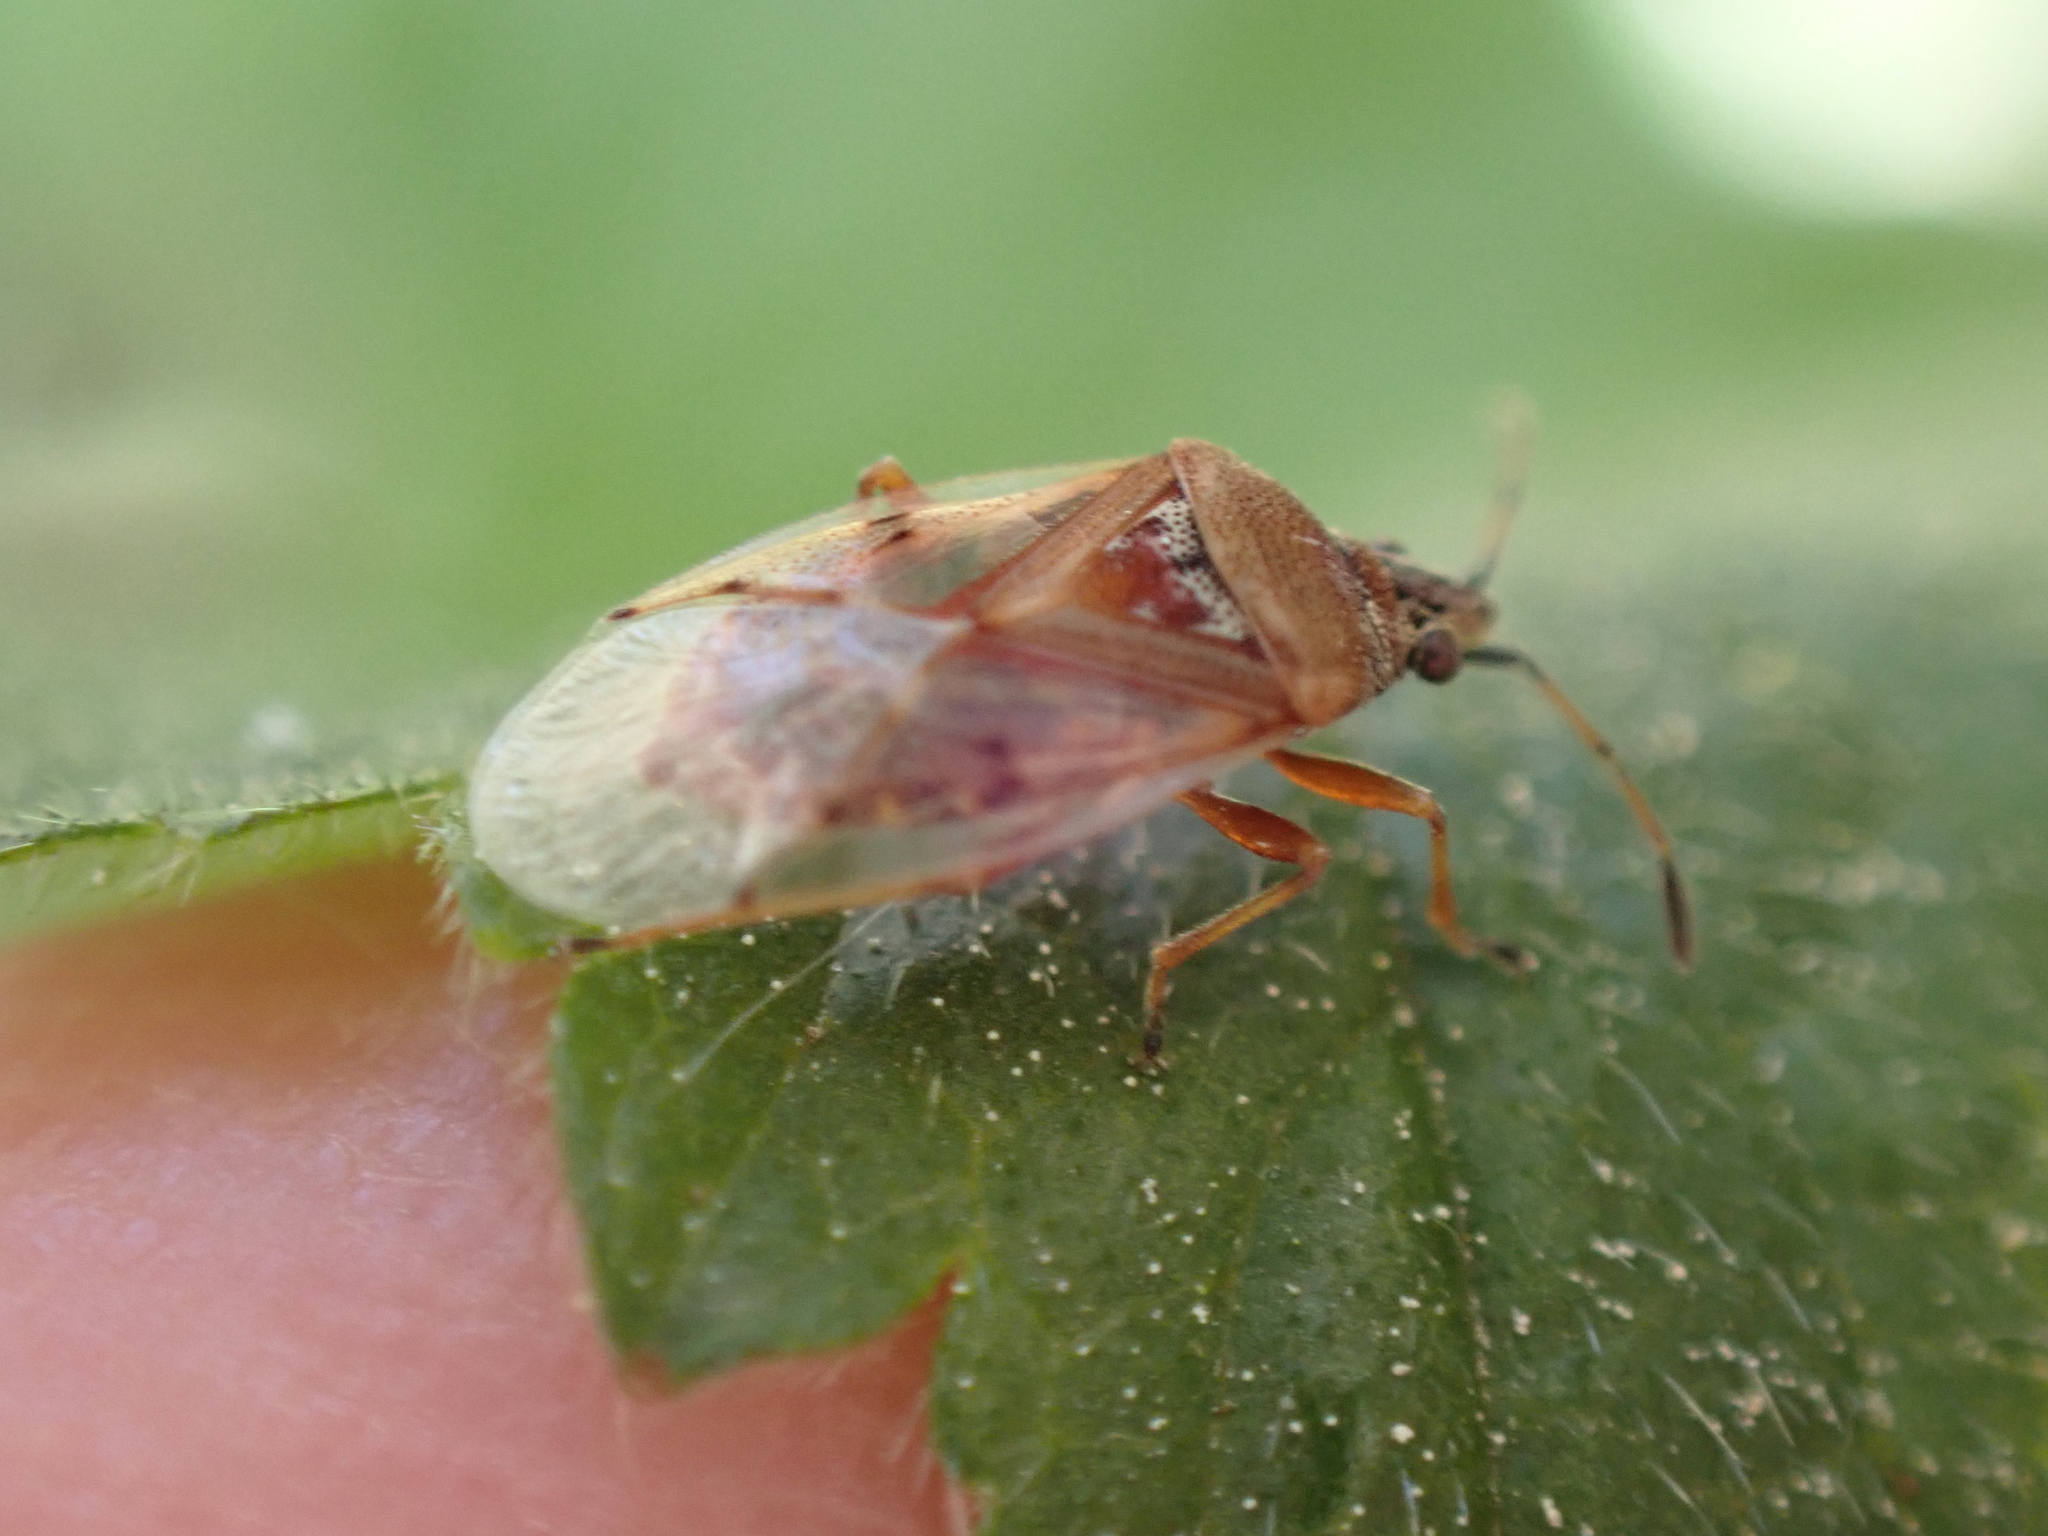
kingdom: Animalia
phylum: Arthropoda
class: Insecta
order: Hemiptera
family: Lygaeidae
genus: Kleidocerys
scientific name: Kleidocerys resedae
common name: Birch catkin bug
